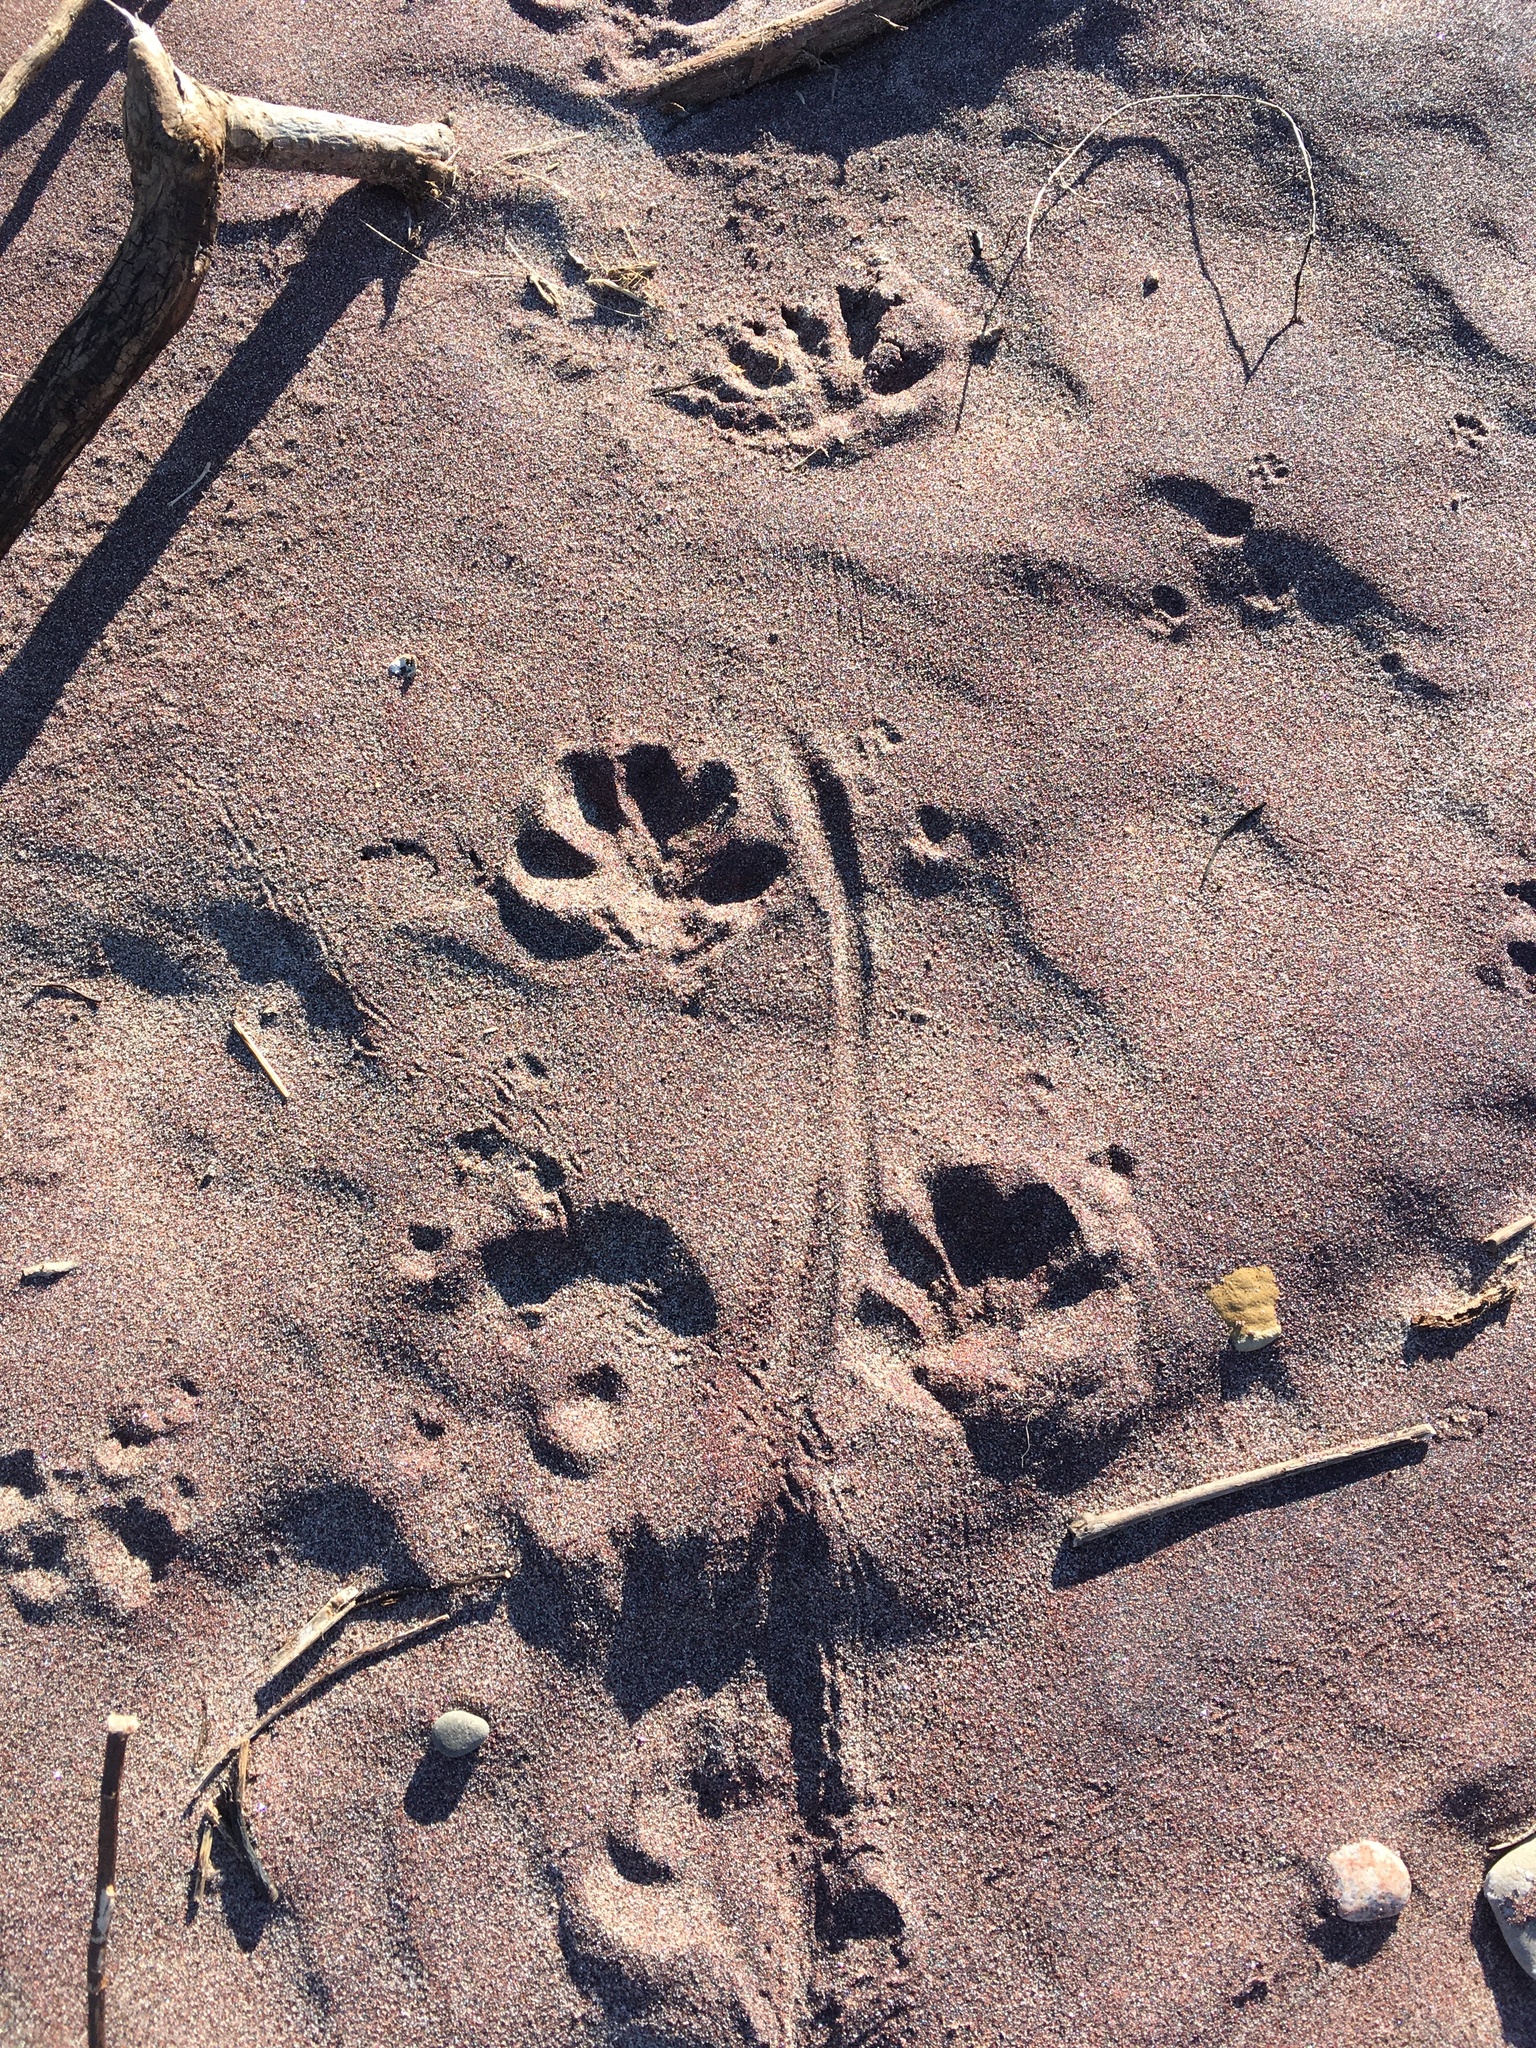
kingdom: Animalia
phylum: Chordata
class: Mammalia
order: Rodentia
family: Cricetidae
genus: Ondatra
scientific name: Ondatra zibethicus
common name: Muskrat
